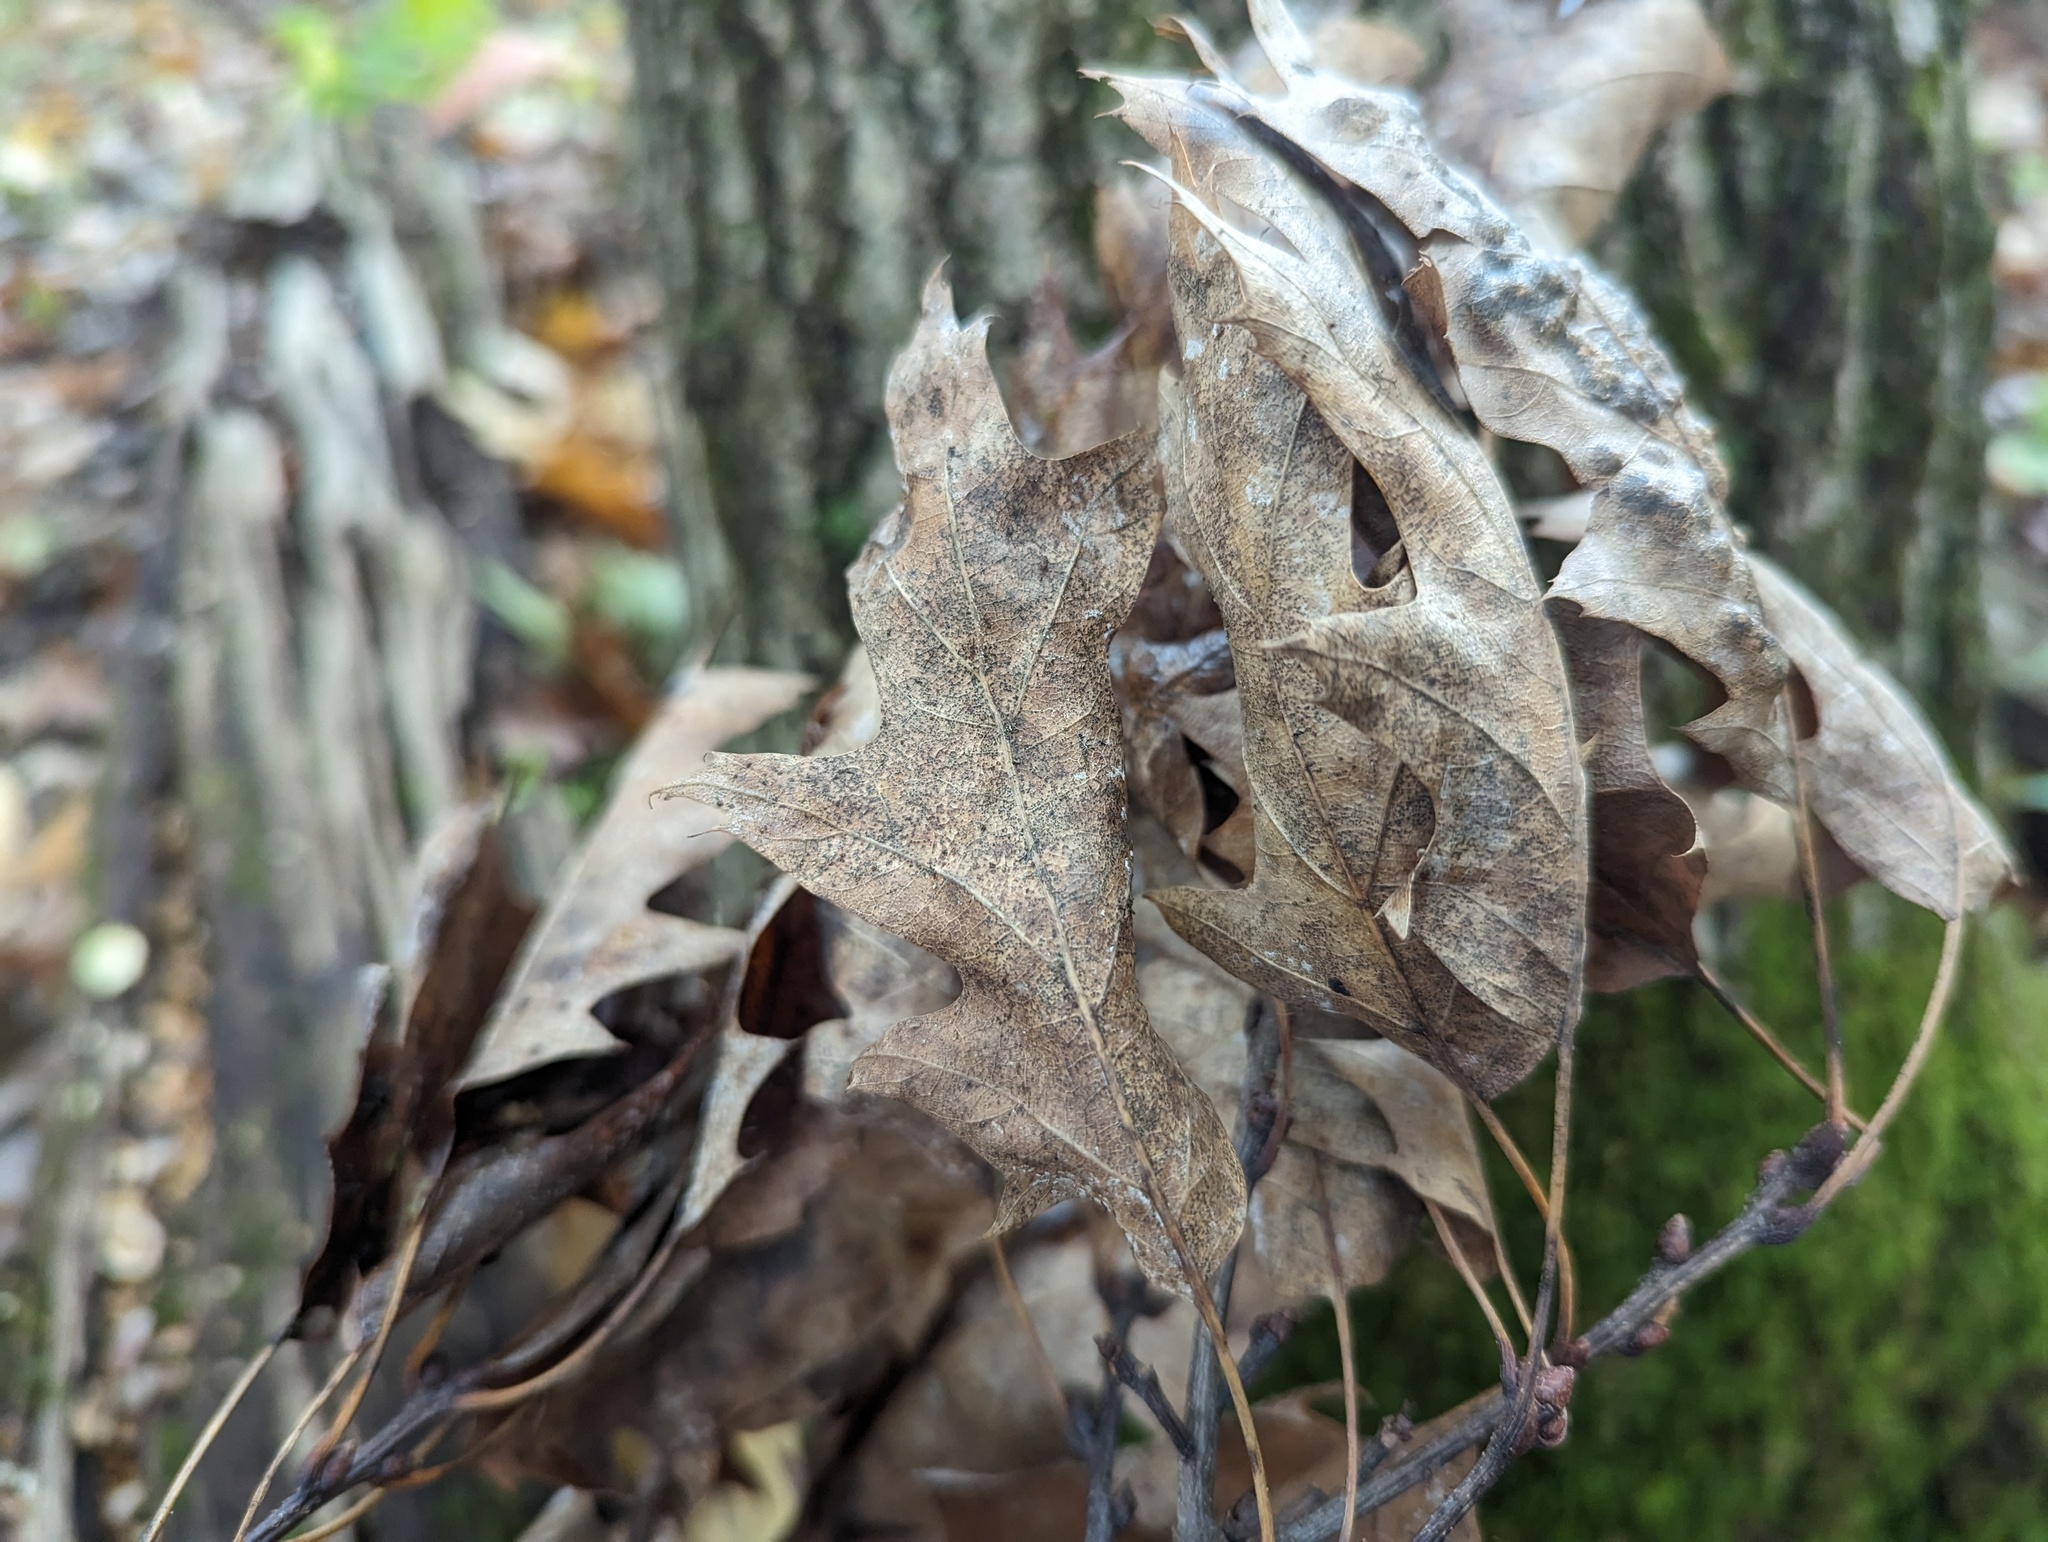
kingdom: Plantae
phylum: Tracheophyta
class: Magnoliopsida
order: Fagales
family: Fagaceae
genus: Quercus
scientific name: Quercus rubra
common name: Red oak
